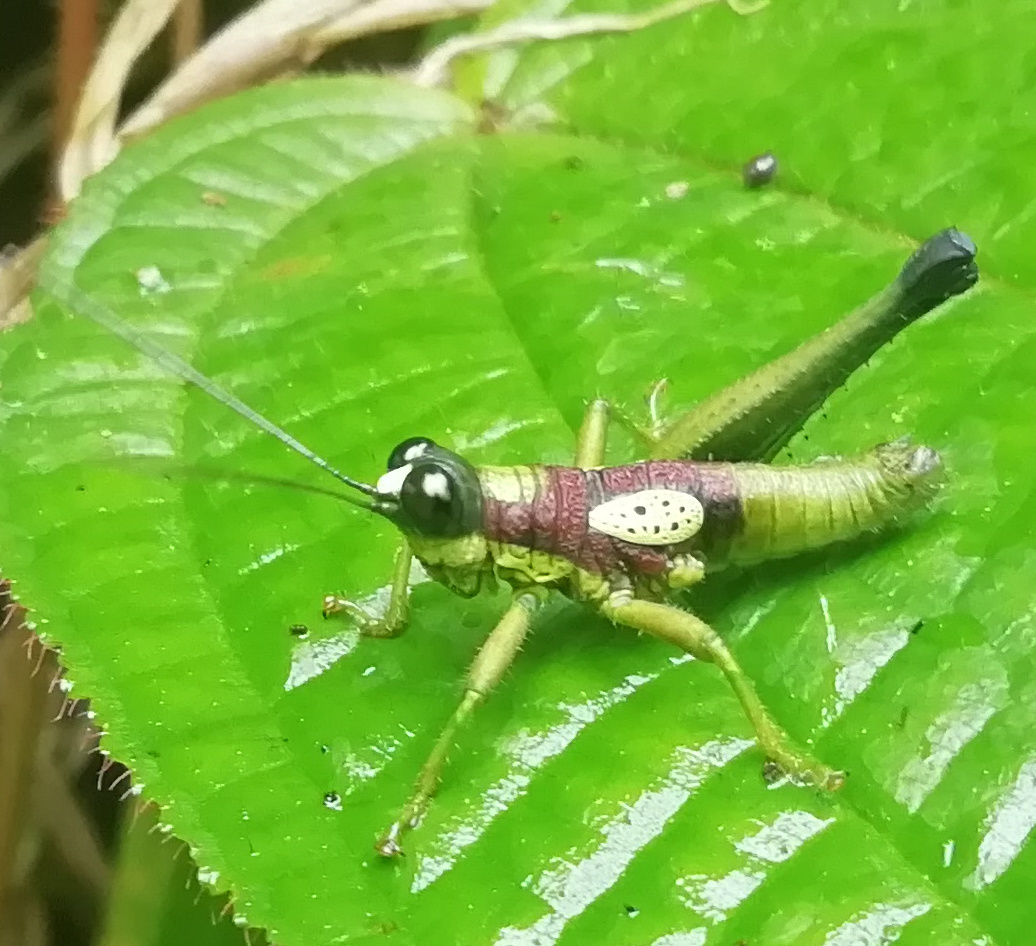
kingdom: Animalia
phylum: Arthropoda
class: Insecta
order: Orthoptera
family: Acrididae
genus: Hippariacris
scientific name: Hippariacris latona
